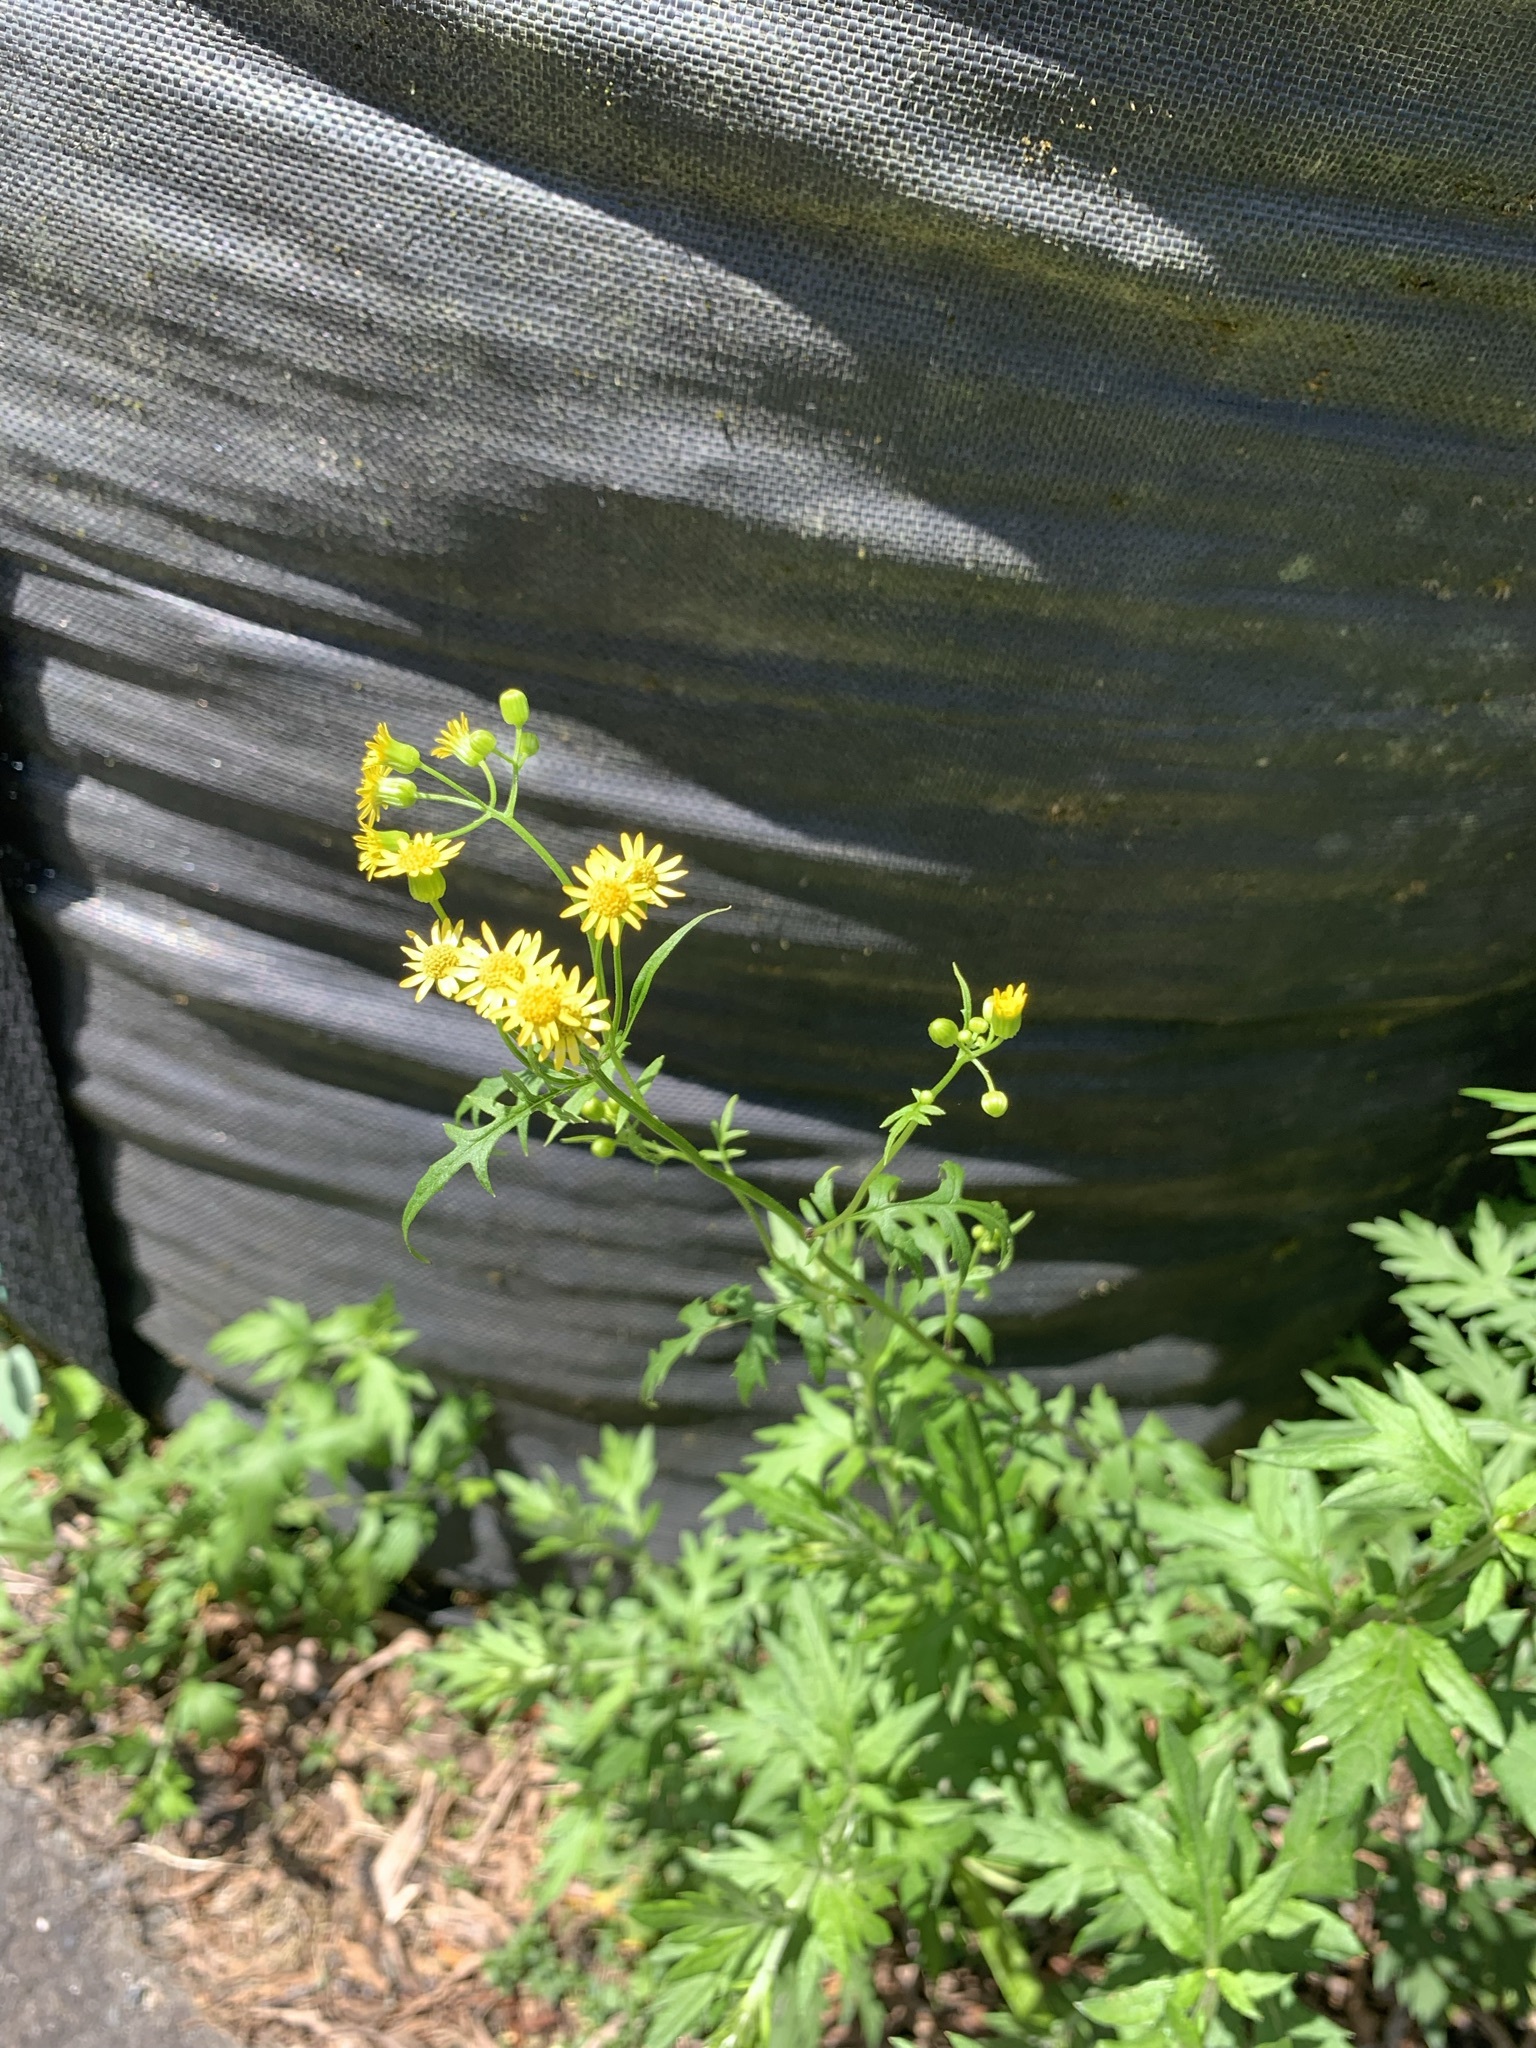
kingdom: Plantae
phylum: Tracheophyta
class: Magnoliopsida
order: Asterales
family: Asteraceae
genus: Nemosenecio
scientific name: Nemosenecio nikoensis
